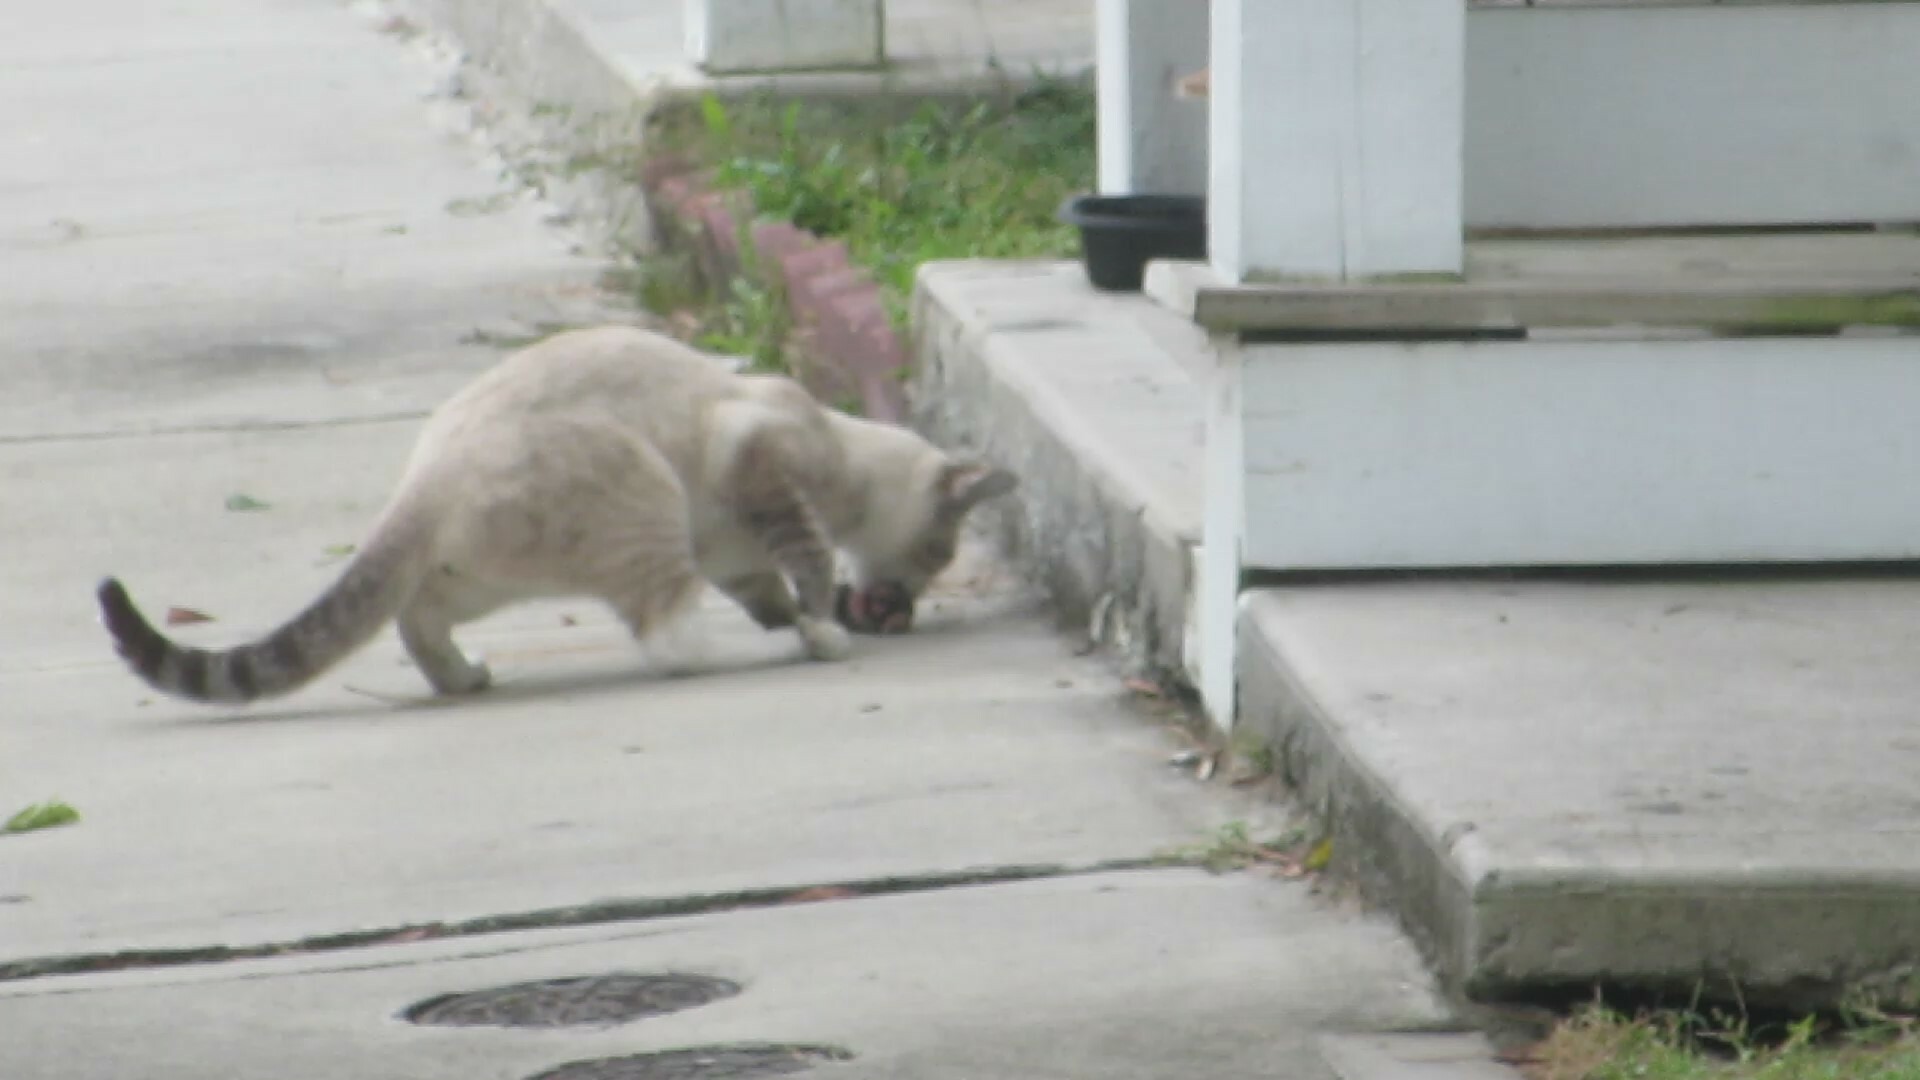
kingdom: Animalia
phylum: Chordata
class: Mammalia
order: Soricomorpha
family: Talpidae
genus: Scalopus
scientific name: Scalopus aquaticus
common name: Eastern mole
